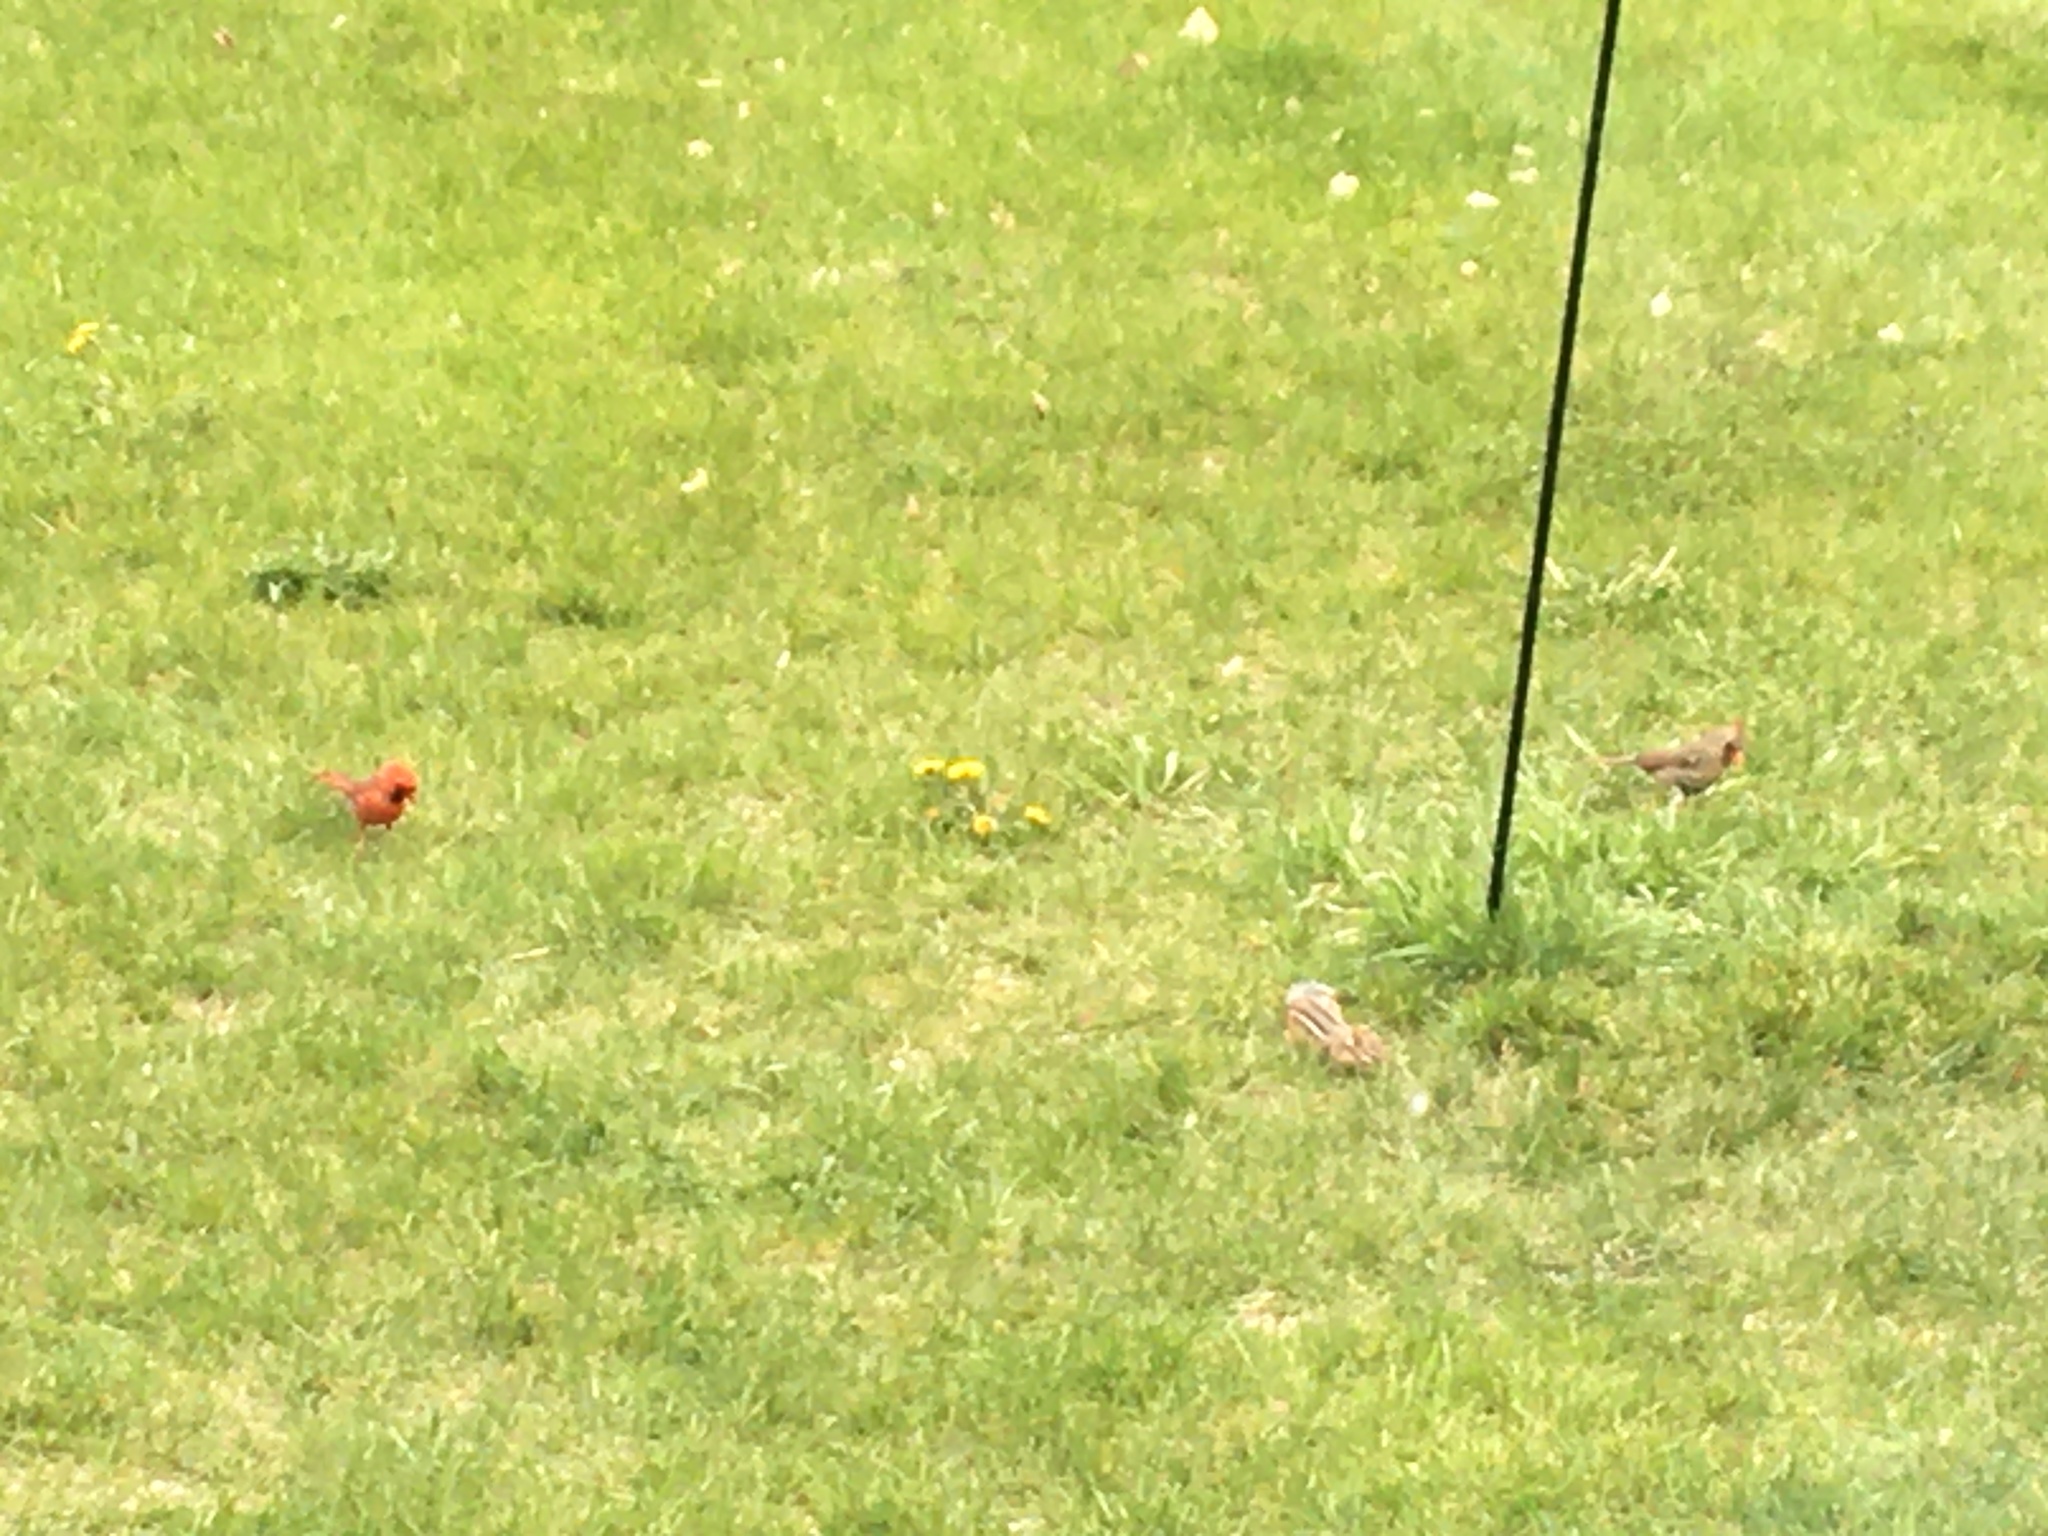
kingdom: Animalia
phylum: Chordata
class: Aves
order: Passeriformes
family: Cardinalidae
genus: Cardinalis
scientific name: Cardinalis cardinalis
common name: Northern cardinal
